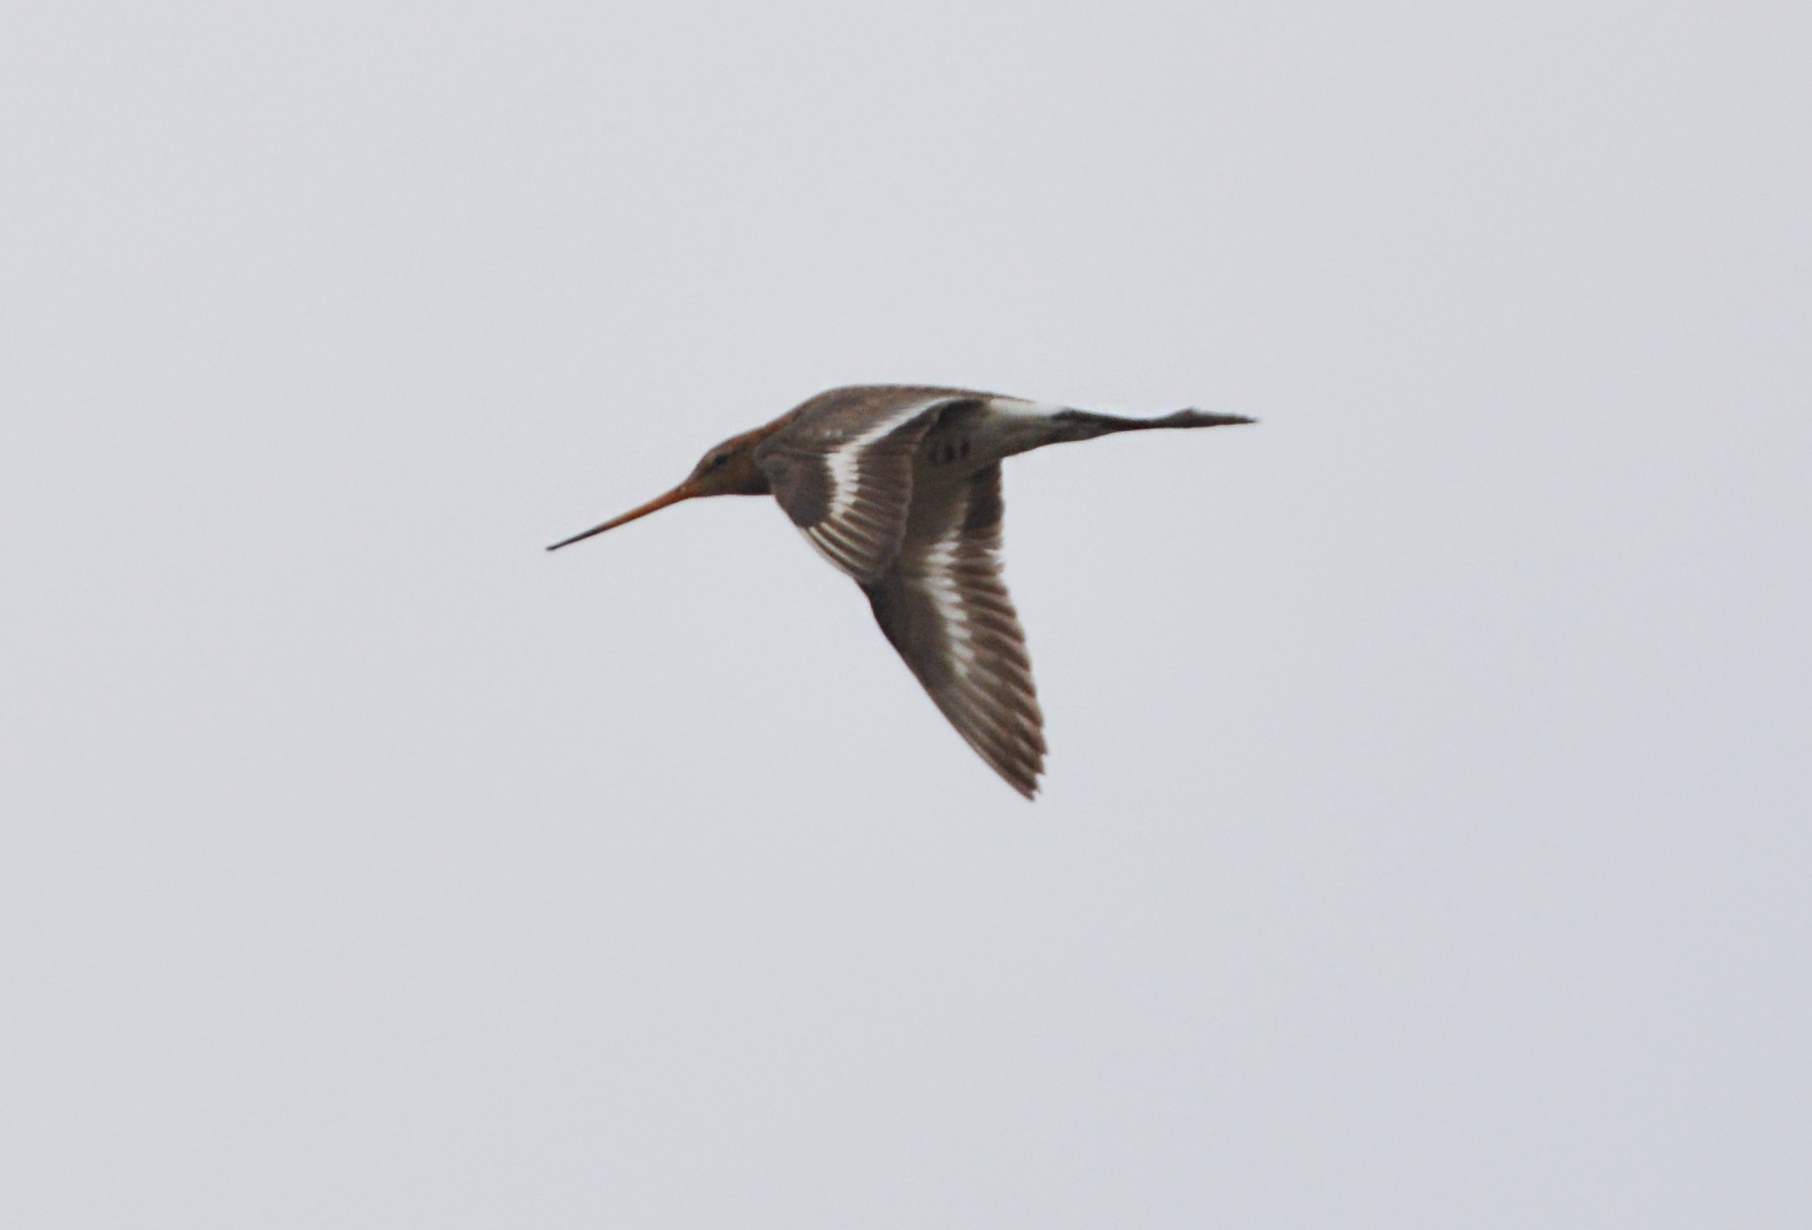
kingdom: Animalia
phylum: Chordata
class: Aves
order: Charadriiformes
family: Scolopacidae
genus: Limosa
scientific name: Limosa limosa
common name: Black-tailed godwit
